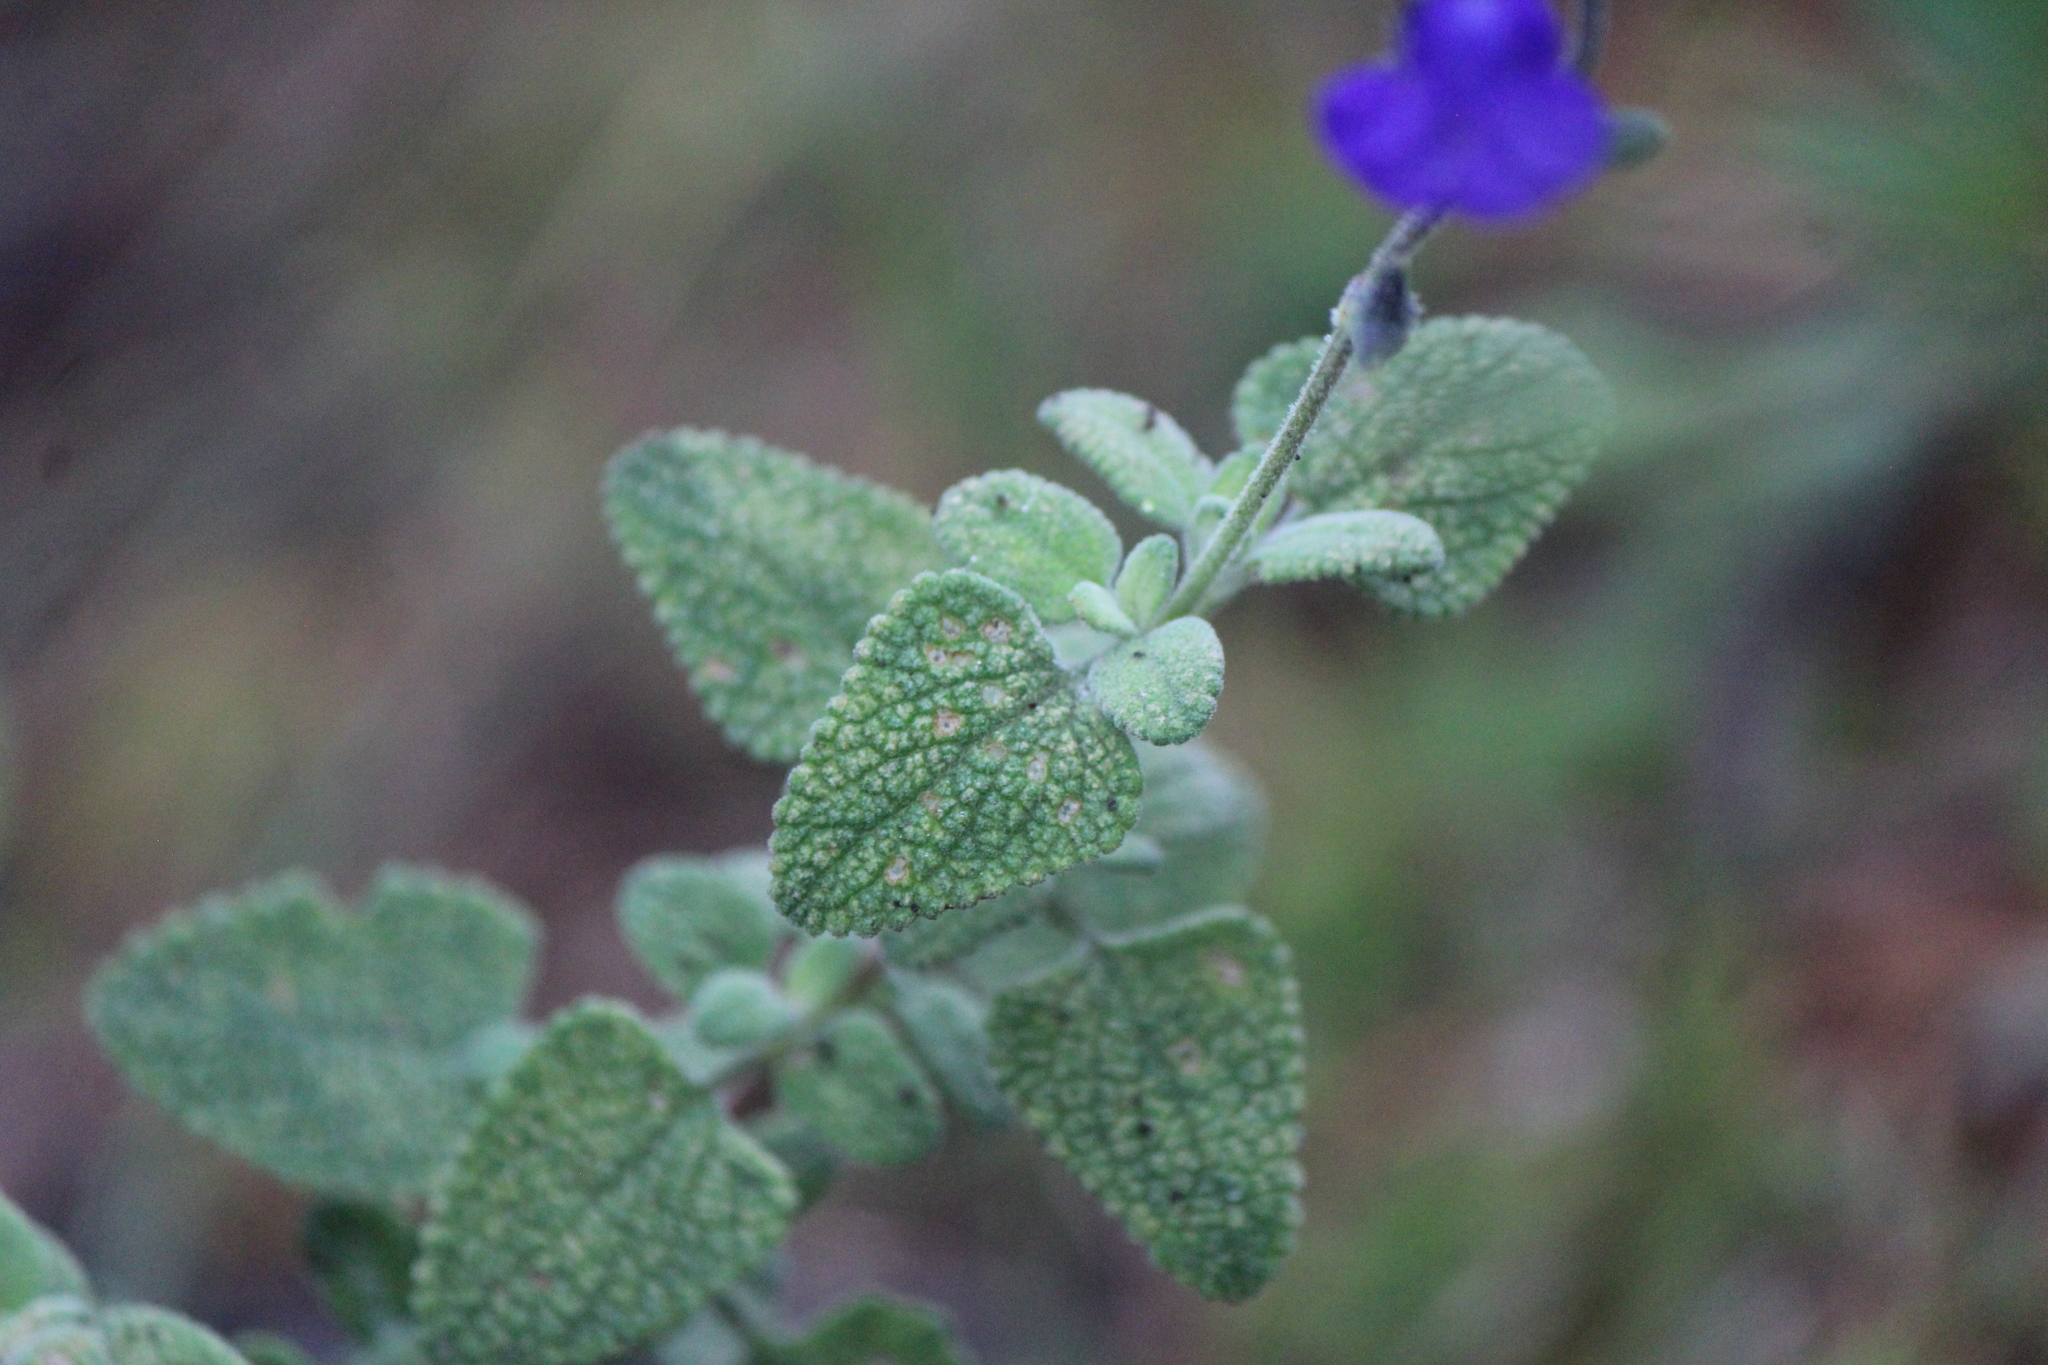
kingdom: Plantae
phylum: Tracheophyta
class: Magnoliopsida
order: Lamiales
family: Lamiaceae
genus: Salvia
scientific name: Salvia chamaedryoides
